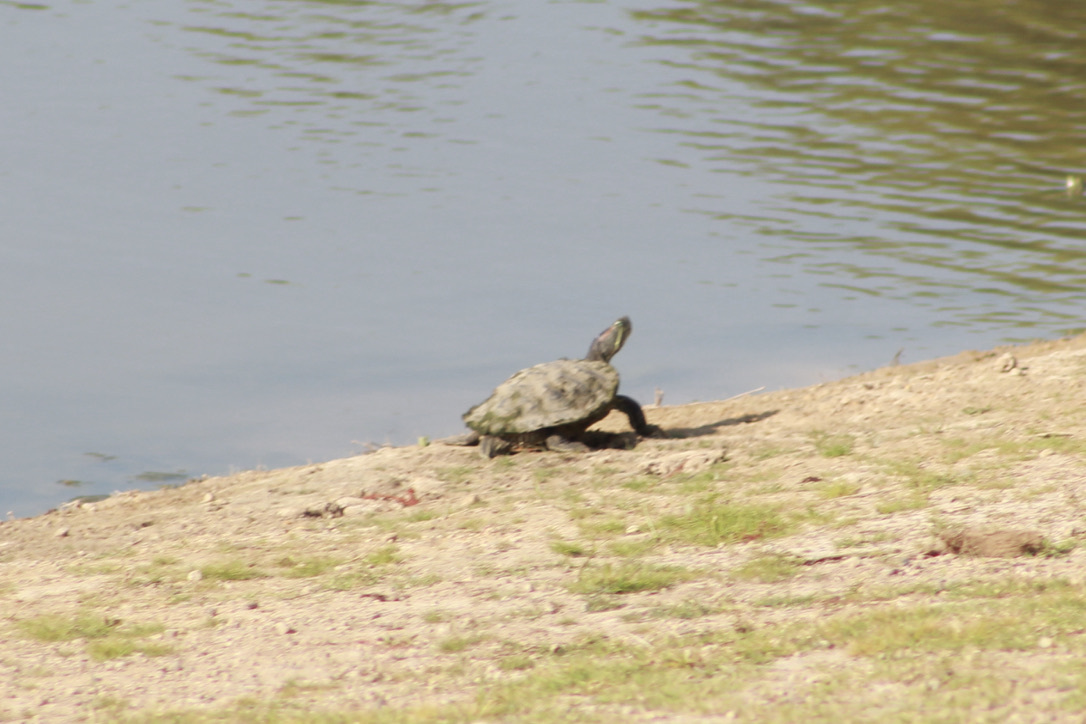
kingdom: Animalia
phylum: Chordata
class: Testudines
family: Emydidae
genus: Trachemys
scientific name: Trachemys scripta
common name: Slider
